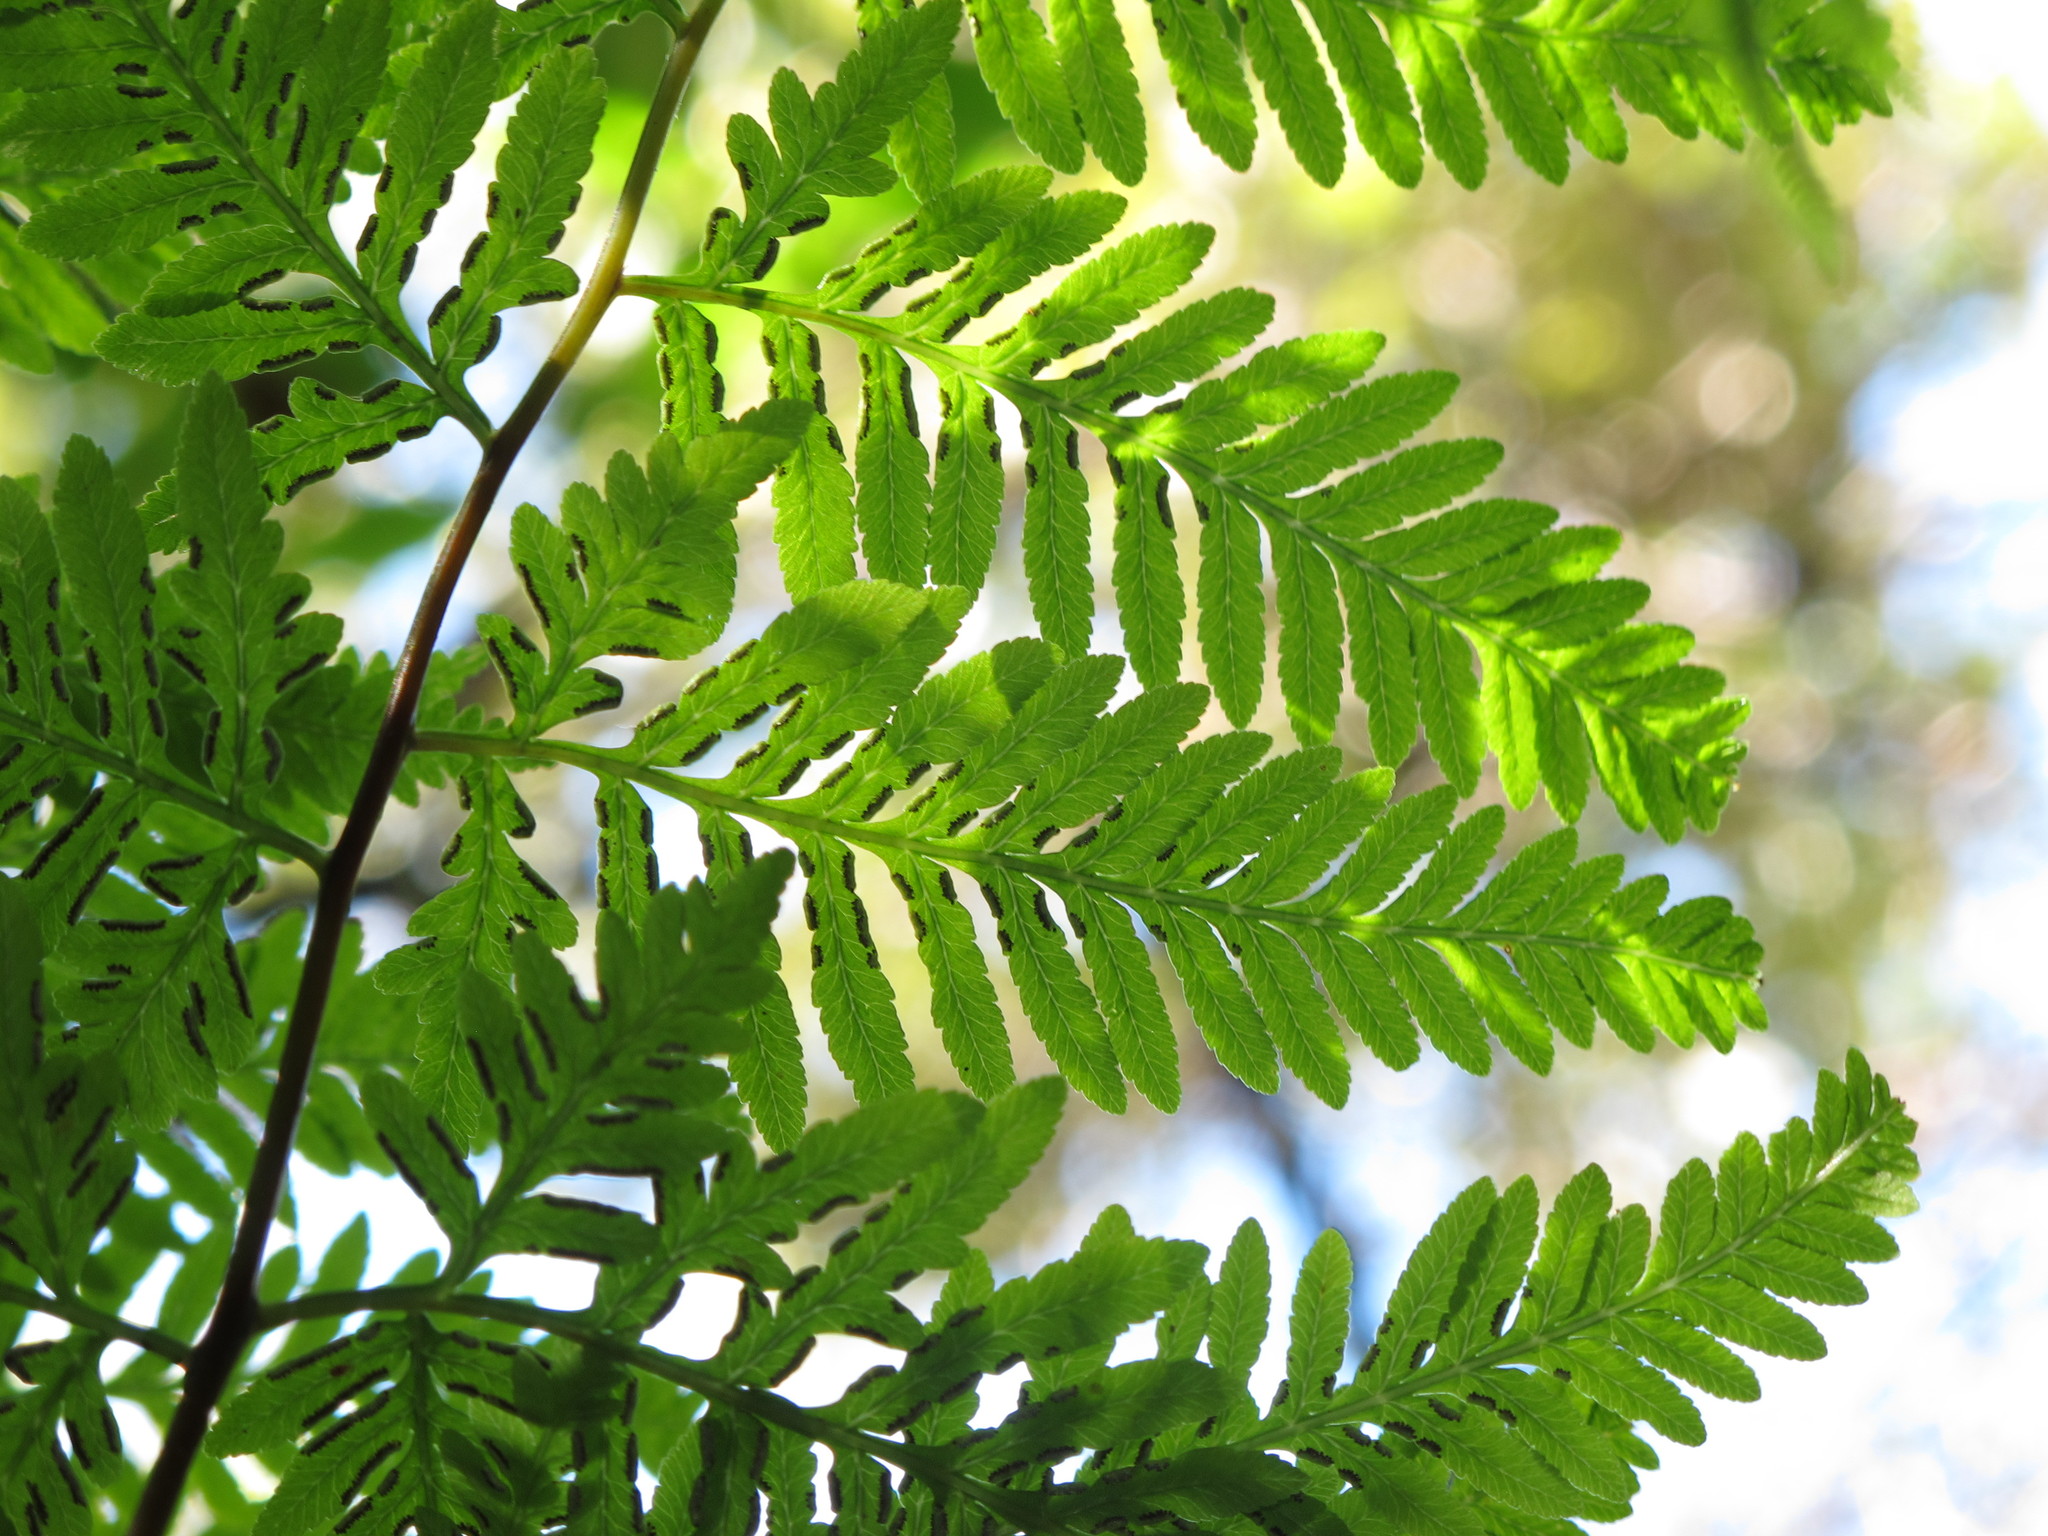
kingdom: Plantae
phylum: Tracheophyta
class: Polypodiopsida
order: Polypodiales
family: Pteridaceae
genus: Pteris
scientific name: Pteris tremula
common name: Australian brake
